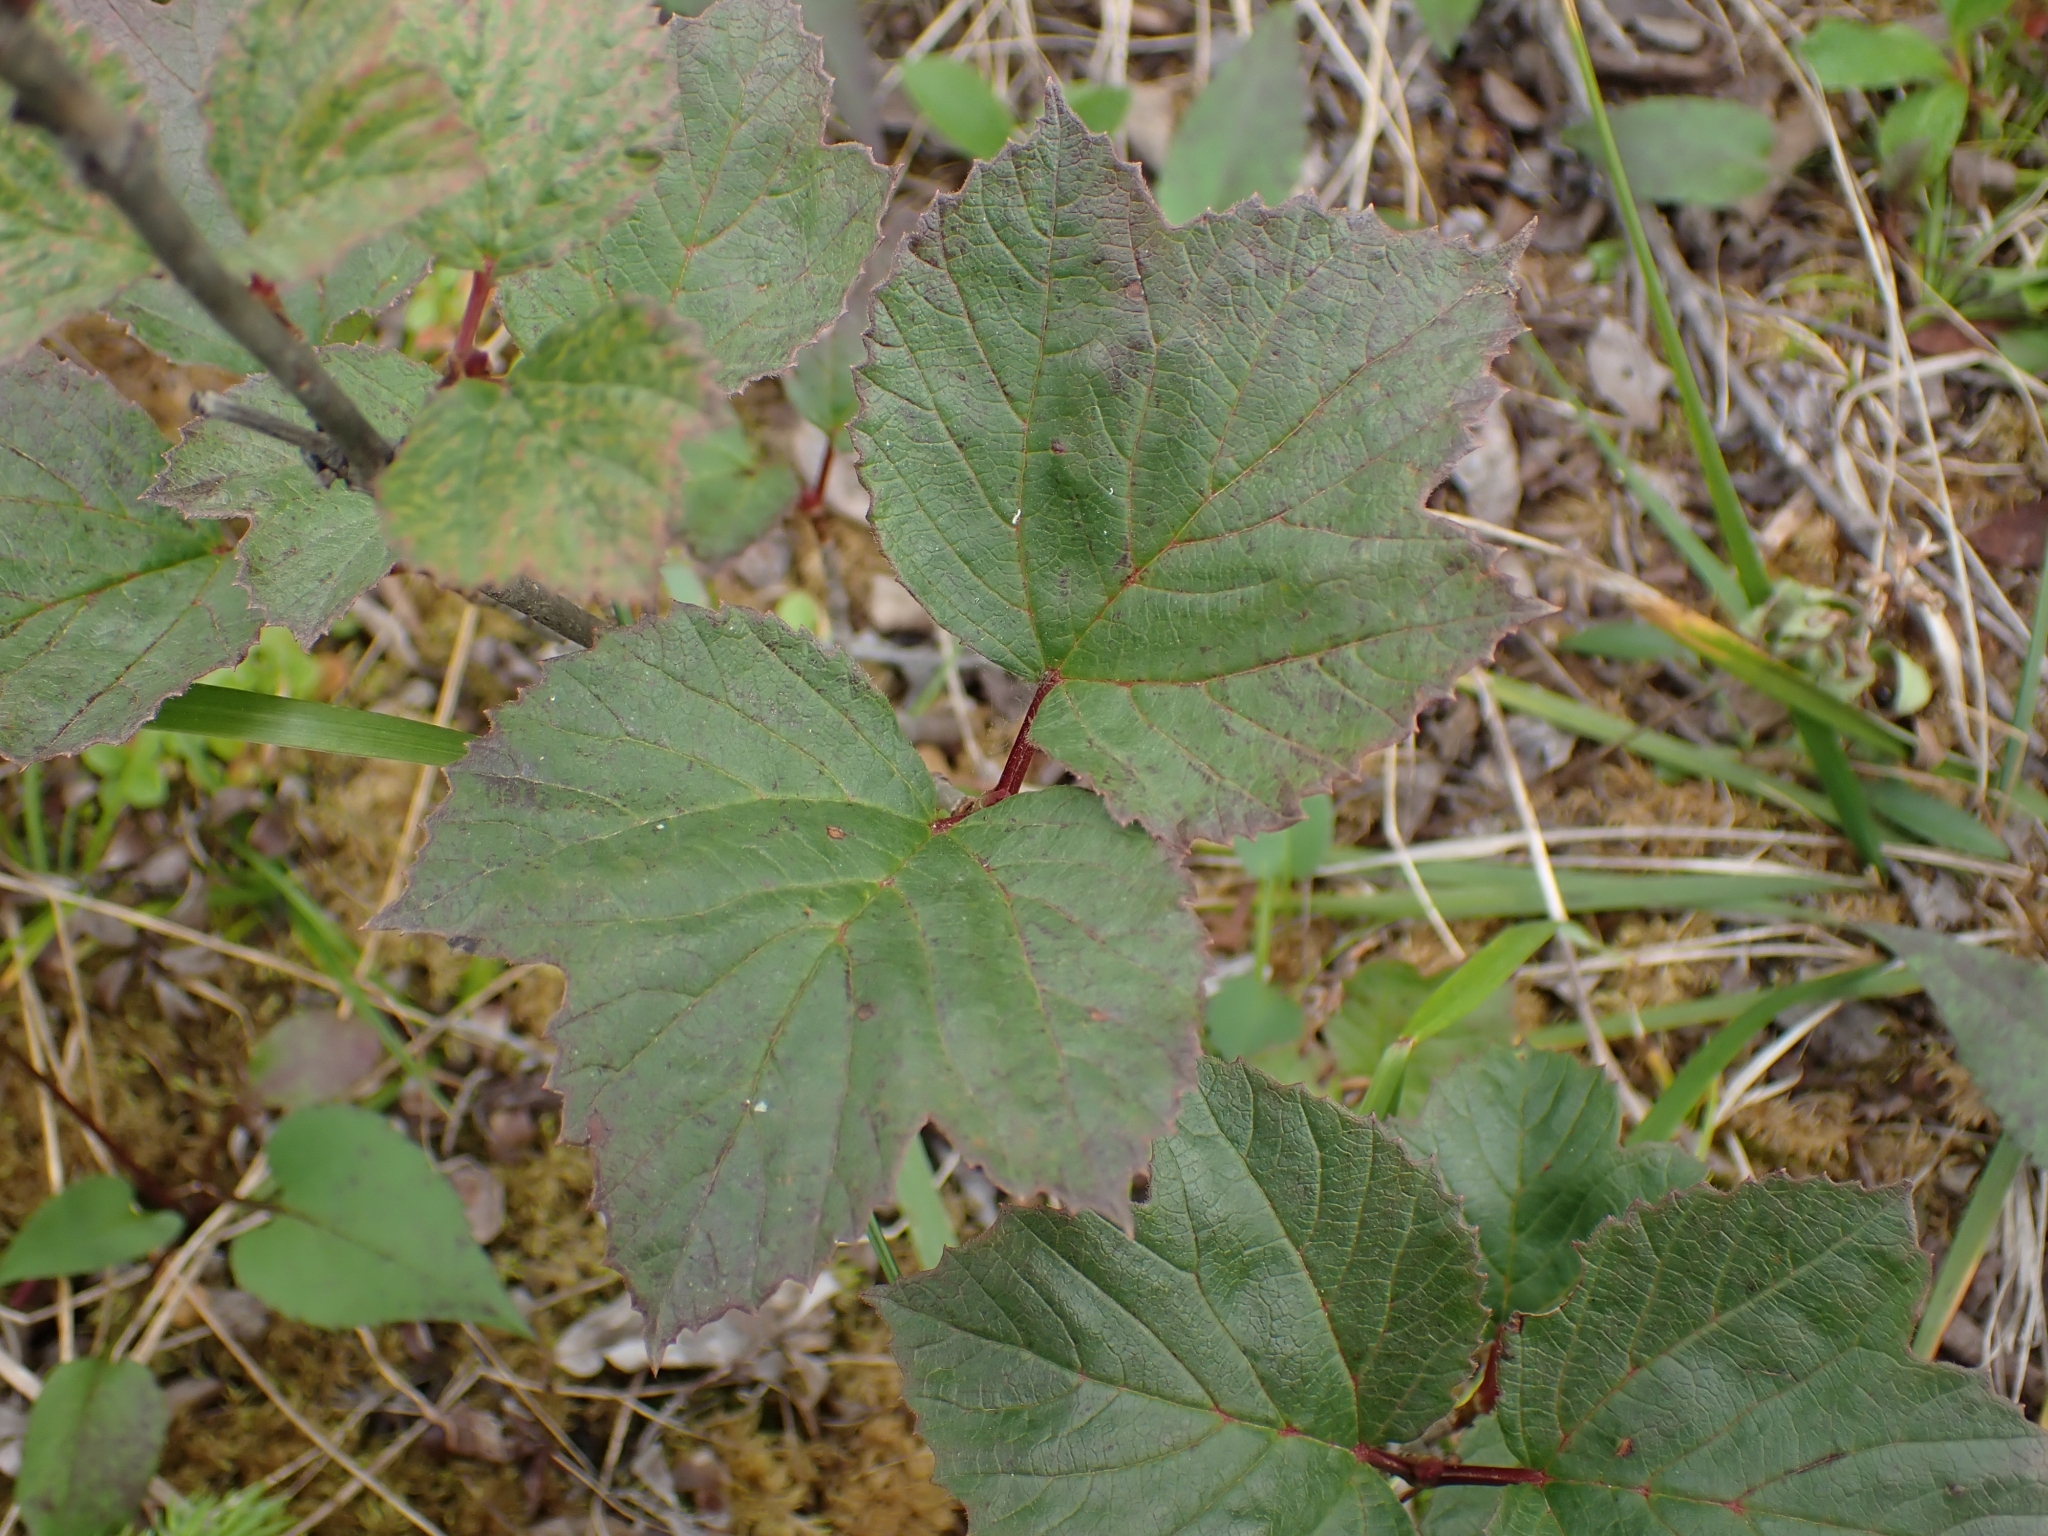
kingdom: Plantae
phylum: Tracheophyta
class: Magnoliopsida
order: Dipsacales
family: Viburnaceae
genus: Viburnum
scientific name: Viburnum edule
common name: Mooseberry
